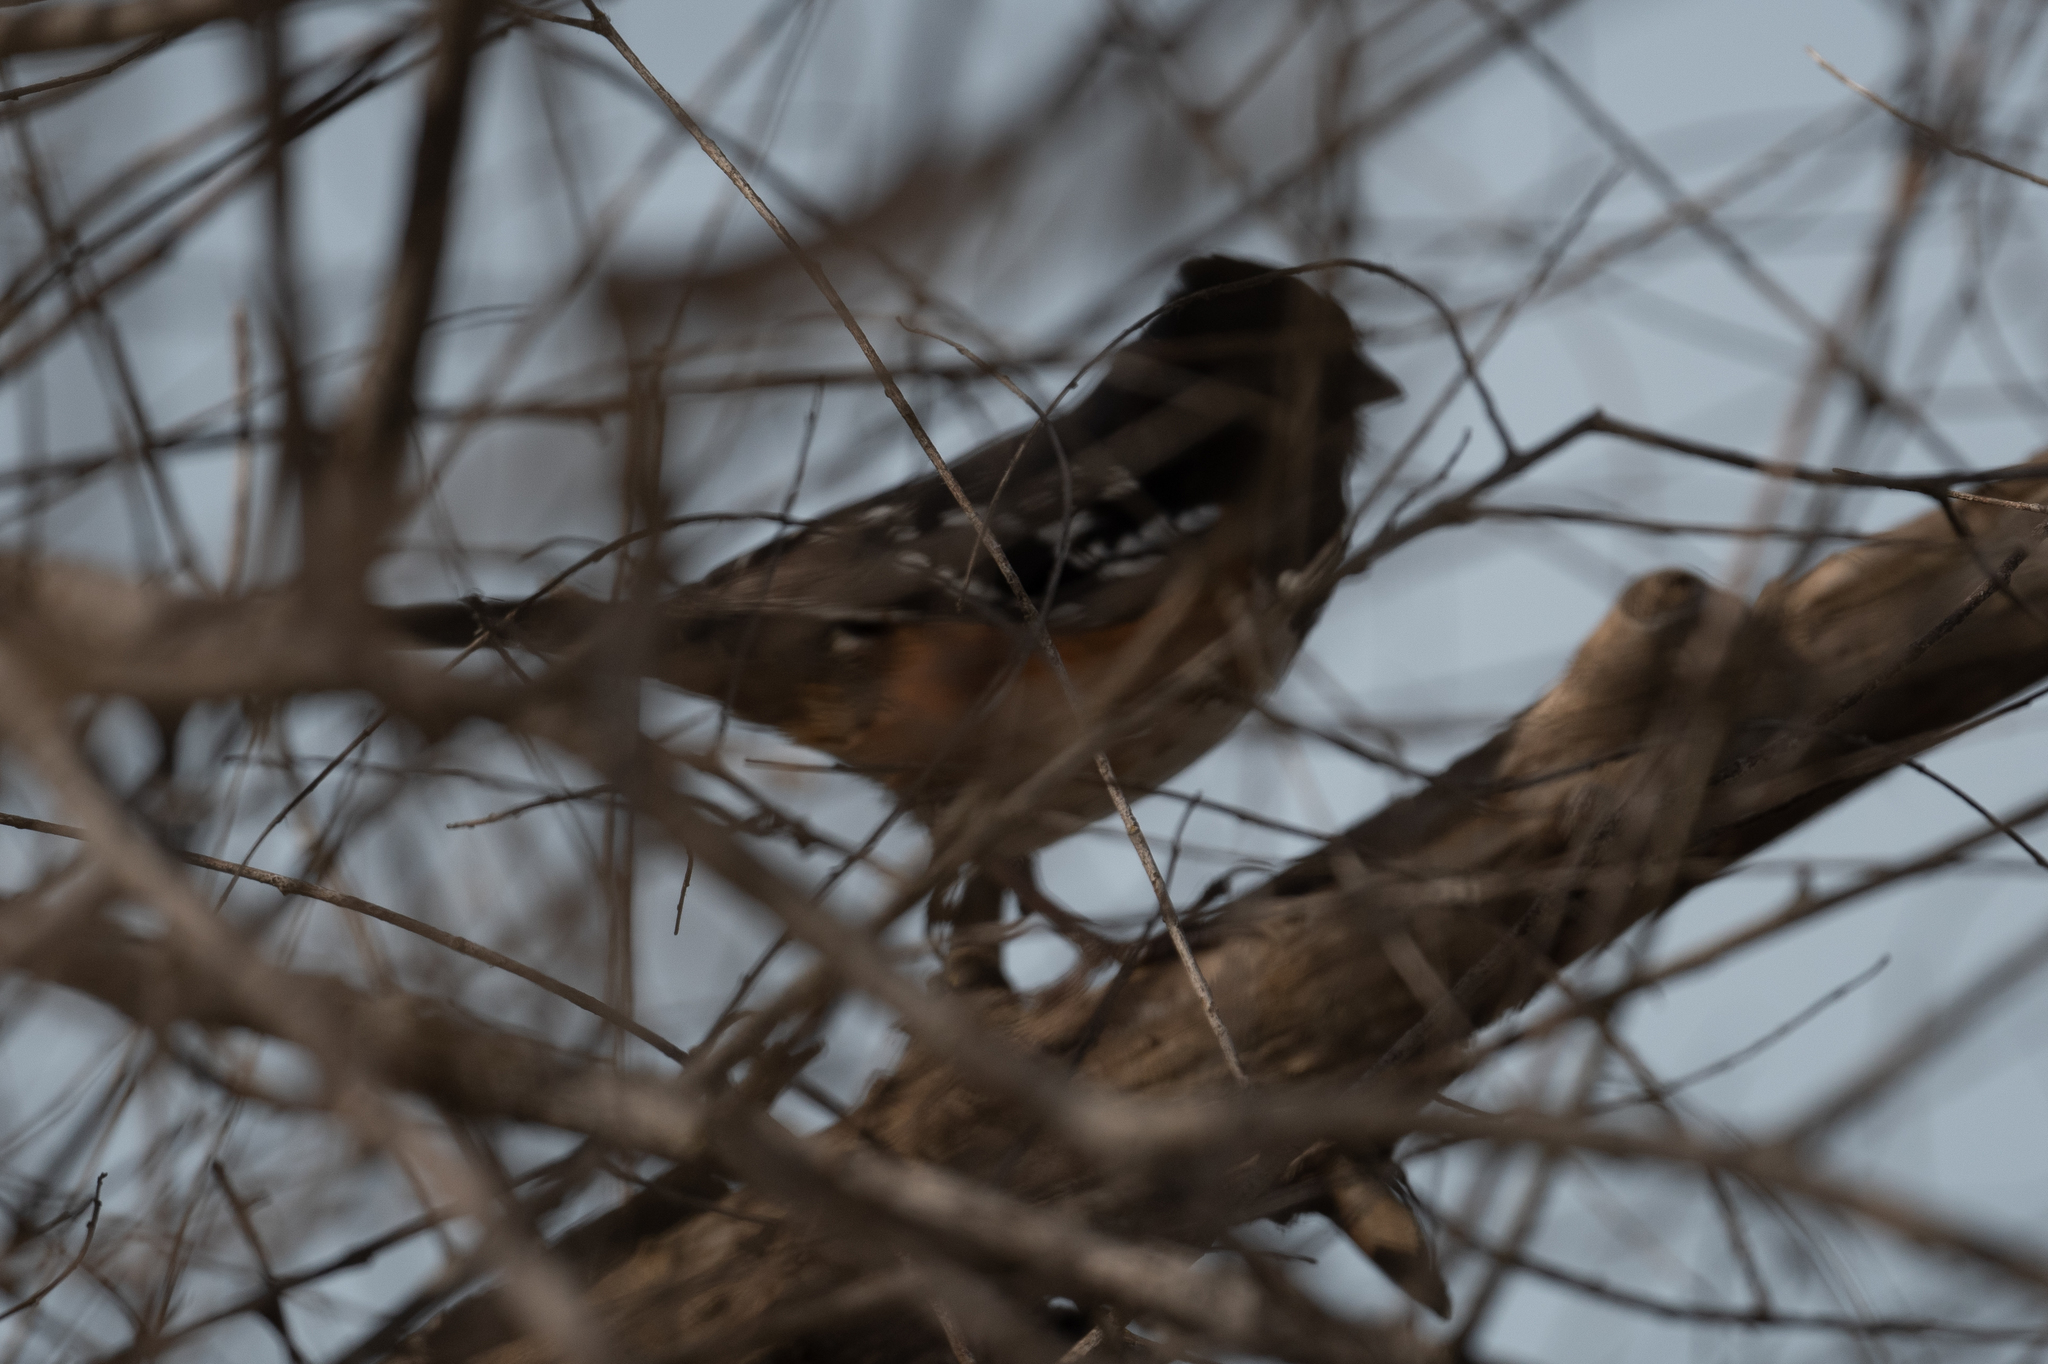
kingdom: Animalia
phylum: Chordata
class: Aves
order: Passeriformes
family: Passerellidae
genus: Pipilo
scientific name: Pipilo maculatus
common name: Spotted towhee
